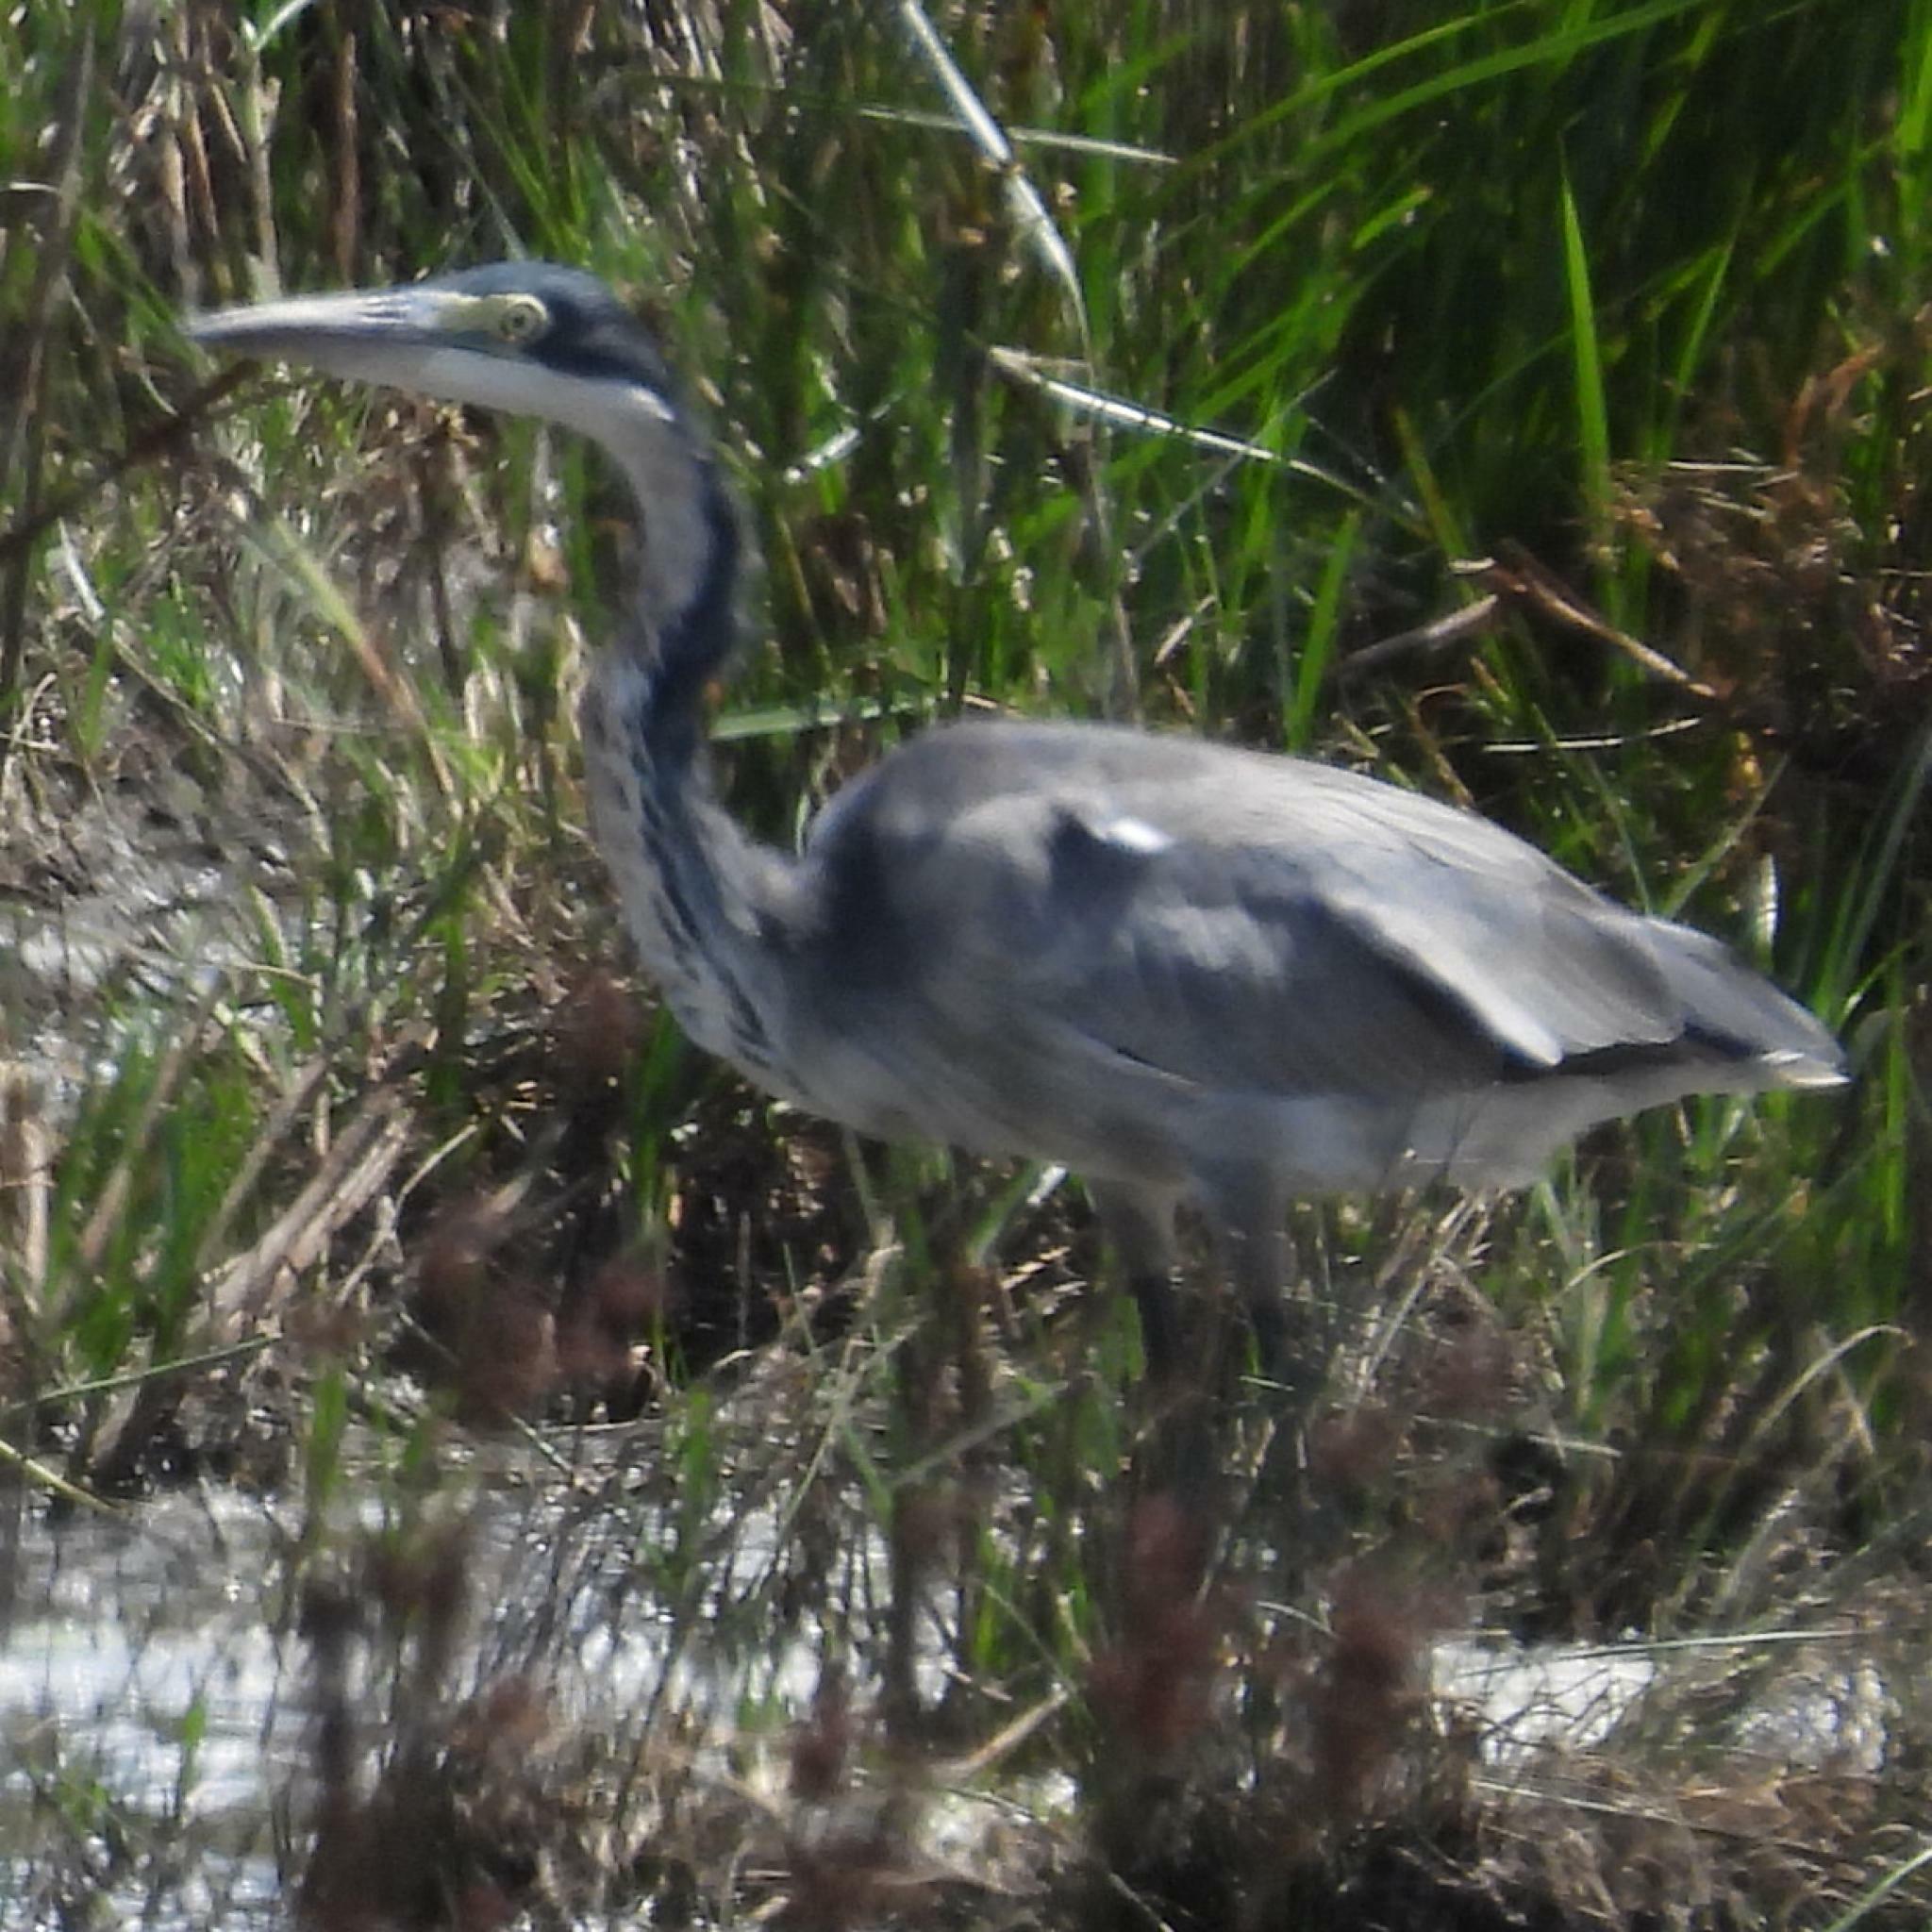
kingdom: Animalia
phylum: Chordata
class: Aves
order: Pelecaniformes
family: Ardeidae
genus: Ardea
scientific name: Ardea melanocephala
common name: Black-headed heron
